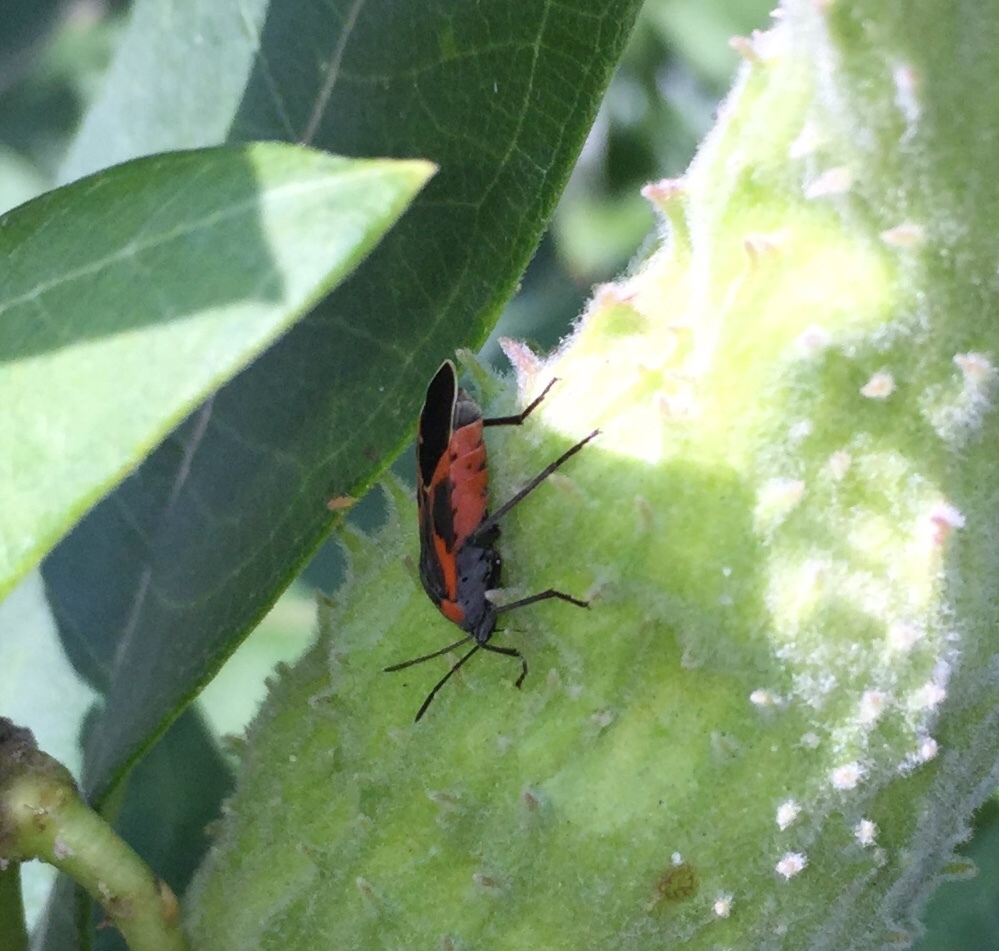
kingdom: Animalia
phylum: Arthropoda
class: Insecta
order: Hemiptera
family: Lygaeidae
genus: Lygaeus
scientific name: Lygaeus kalmii
